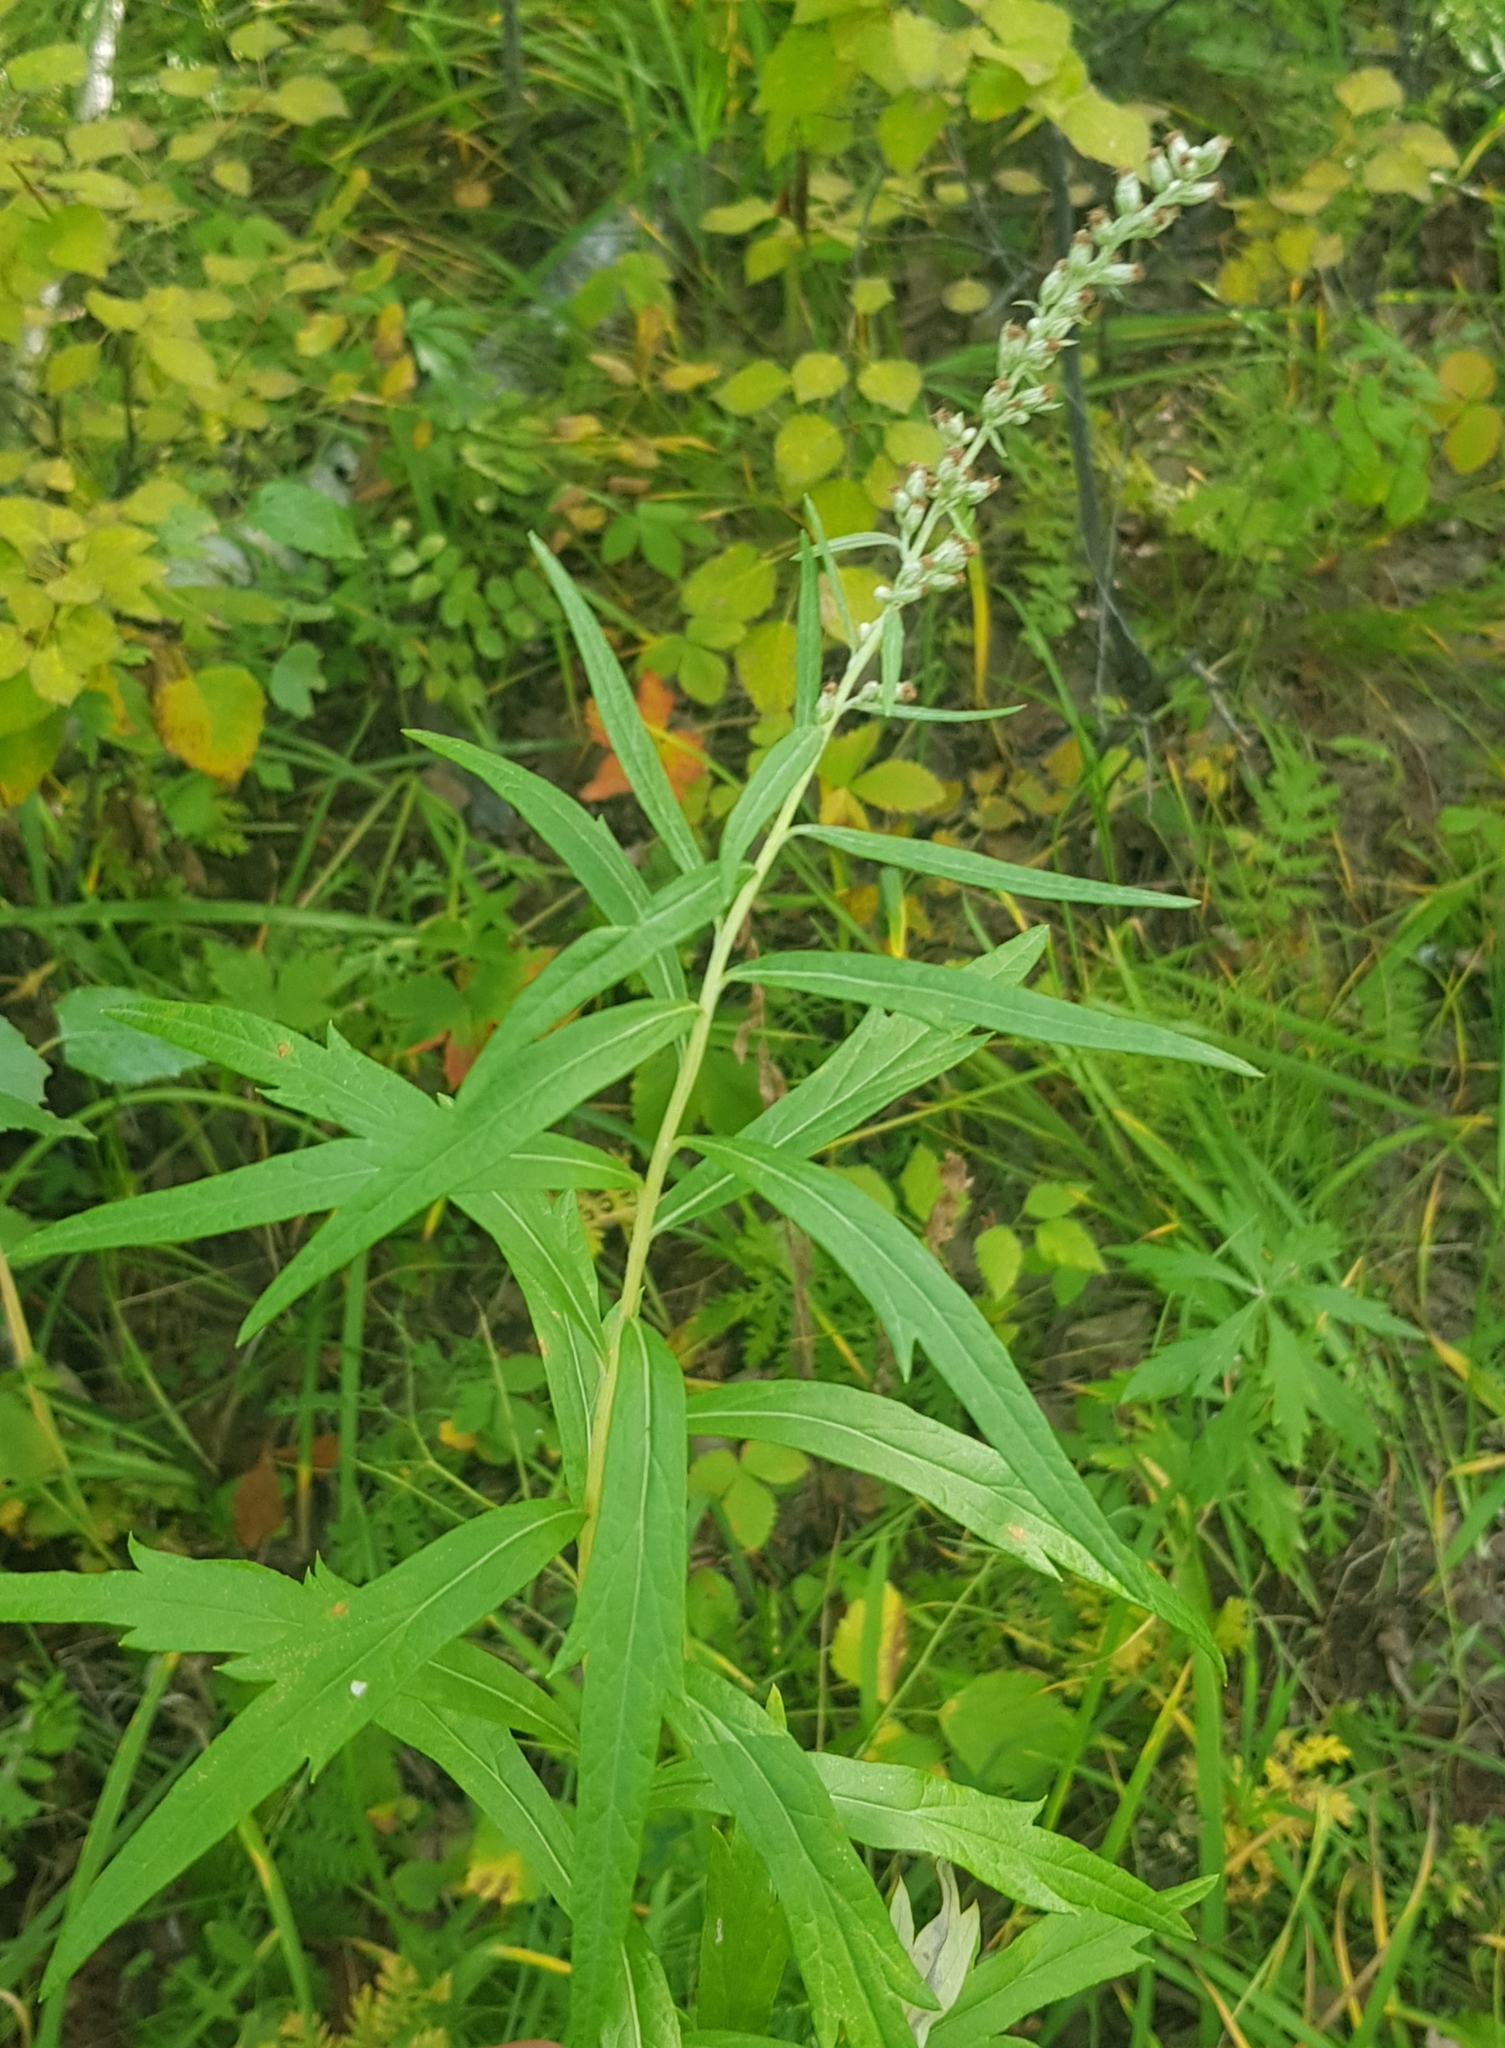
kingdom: Plantae
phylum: Tracheophyta
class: Magnoliopsida
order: Asterales
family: Asteraceae
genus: Artemisia
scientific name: Artemisia integrifolia
